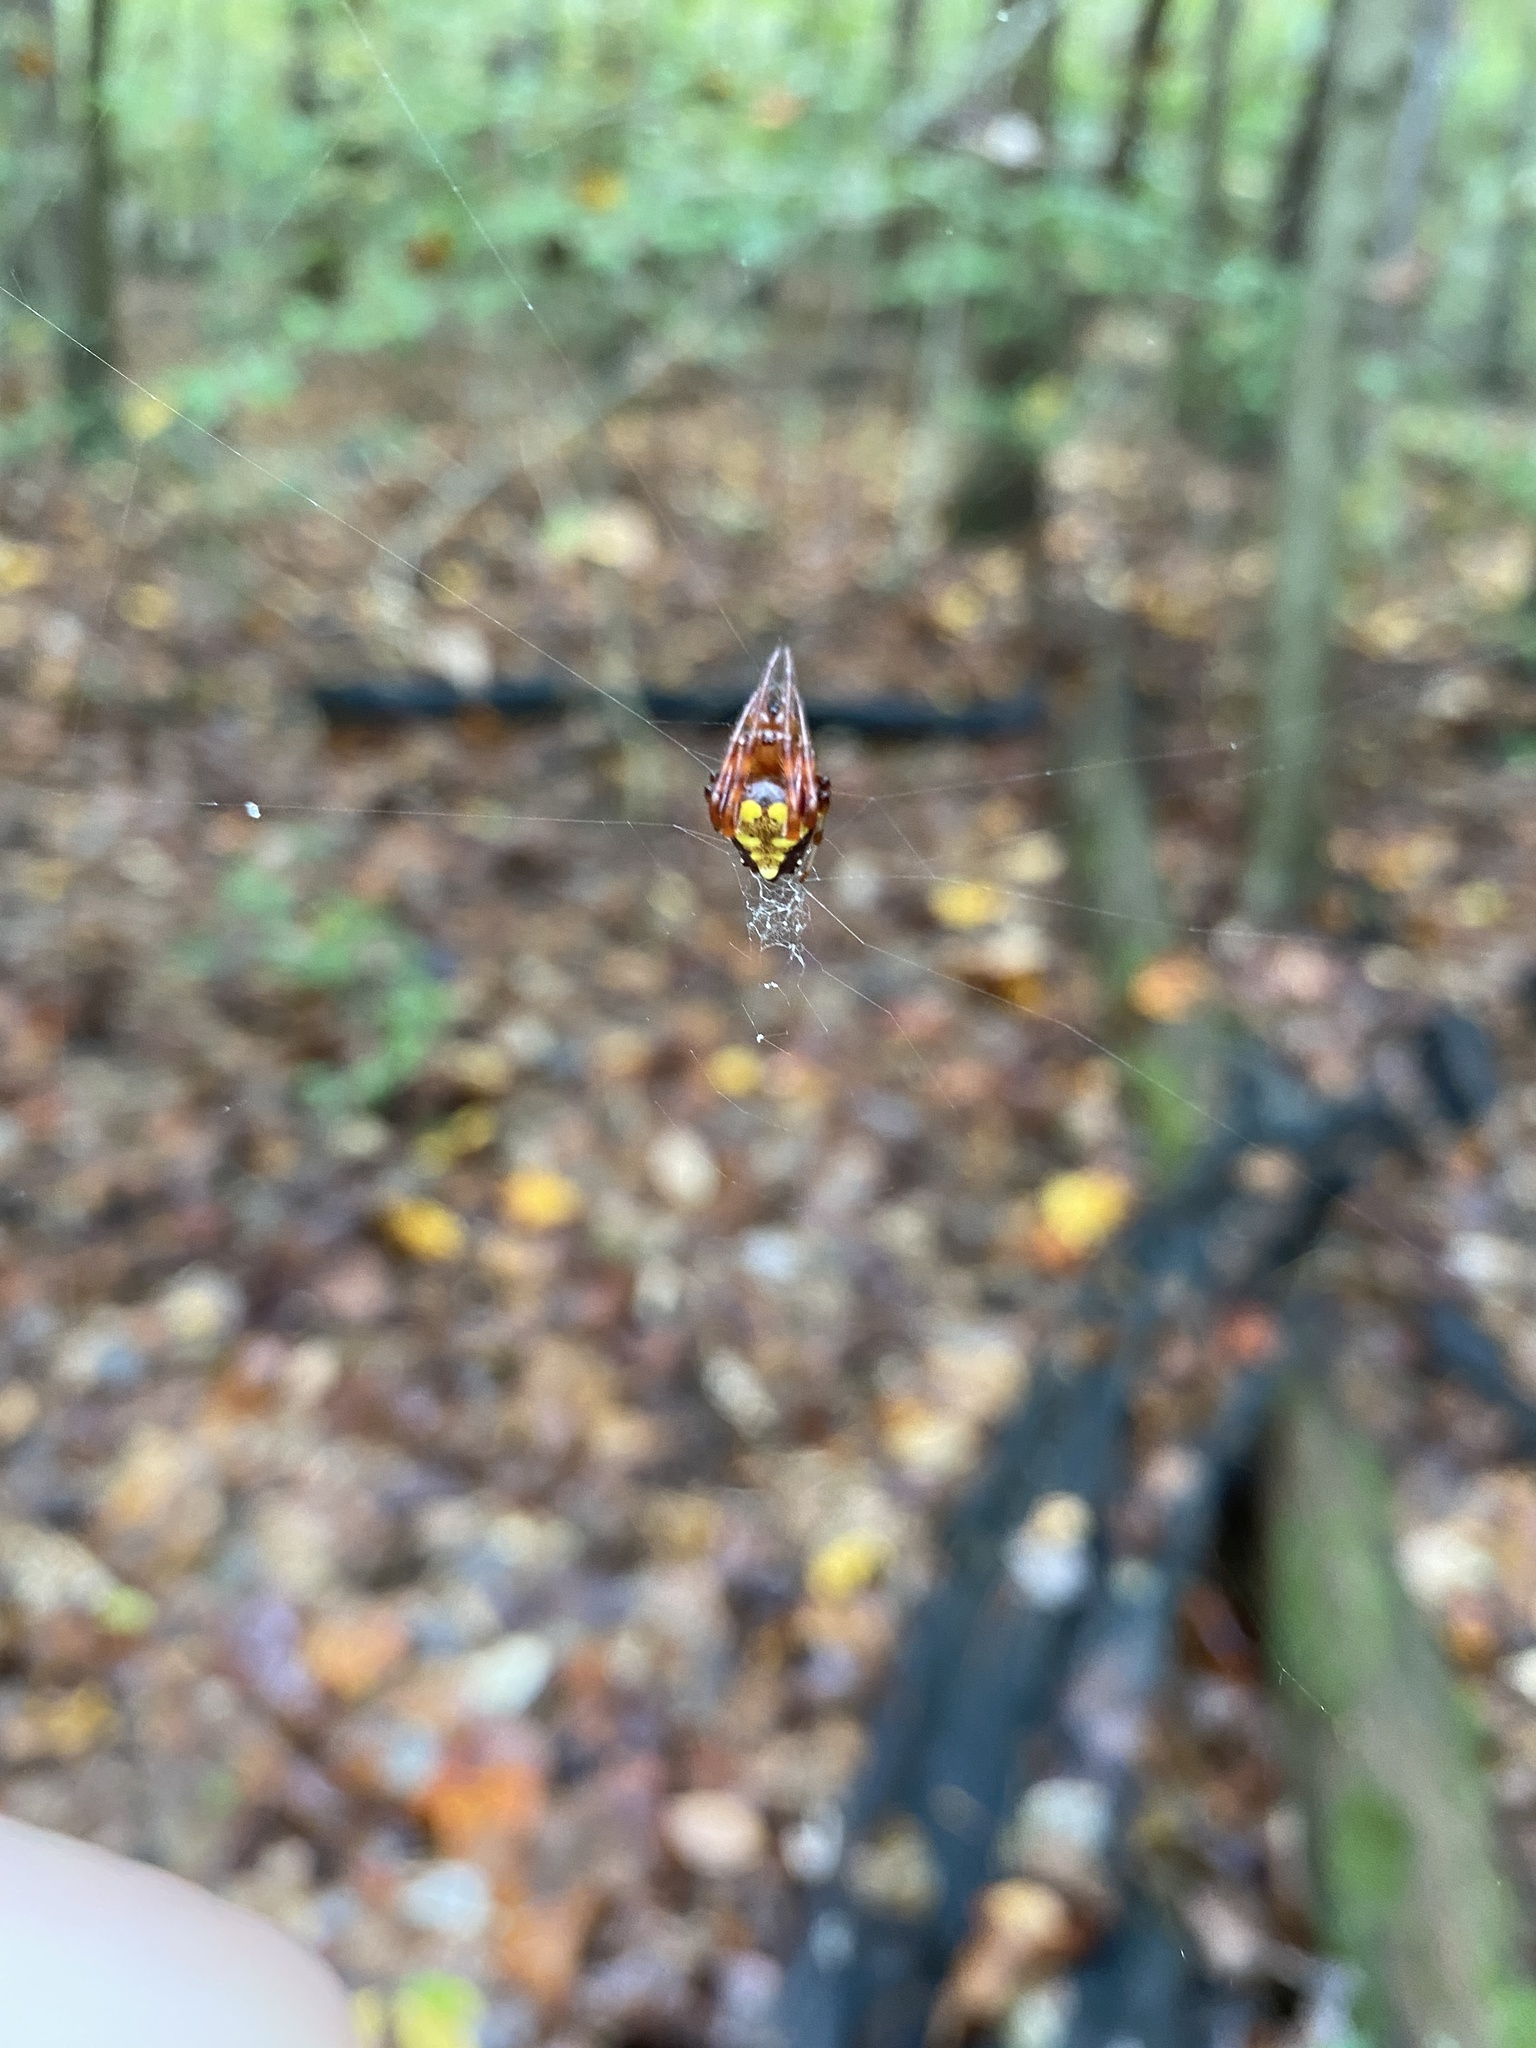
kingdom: Animalia
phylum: Arthropoda
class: Arachnida
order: Araneae
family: Araneidae
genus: Verrucosa
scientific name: Verrucosa arenata
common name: Orb weavers
